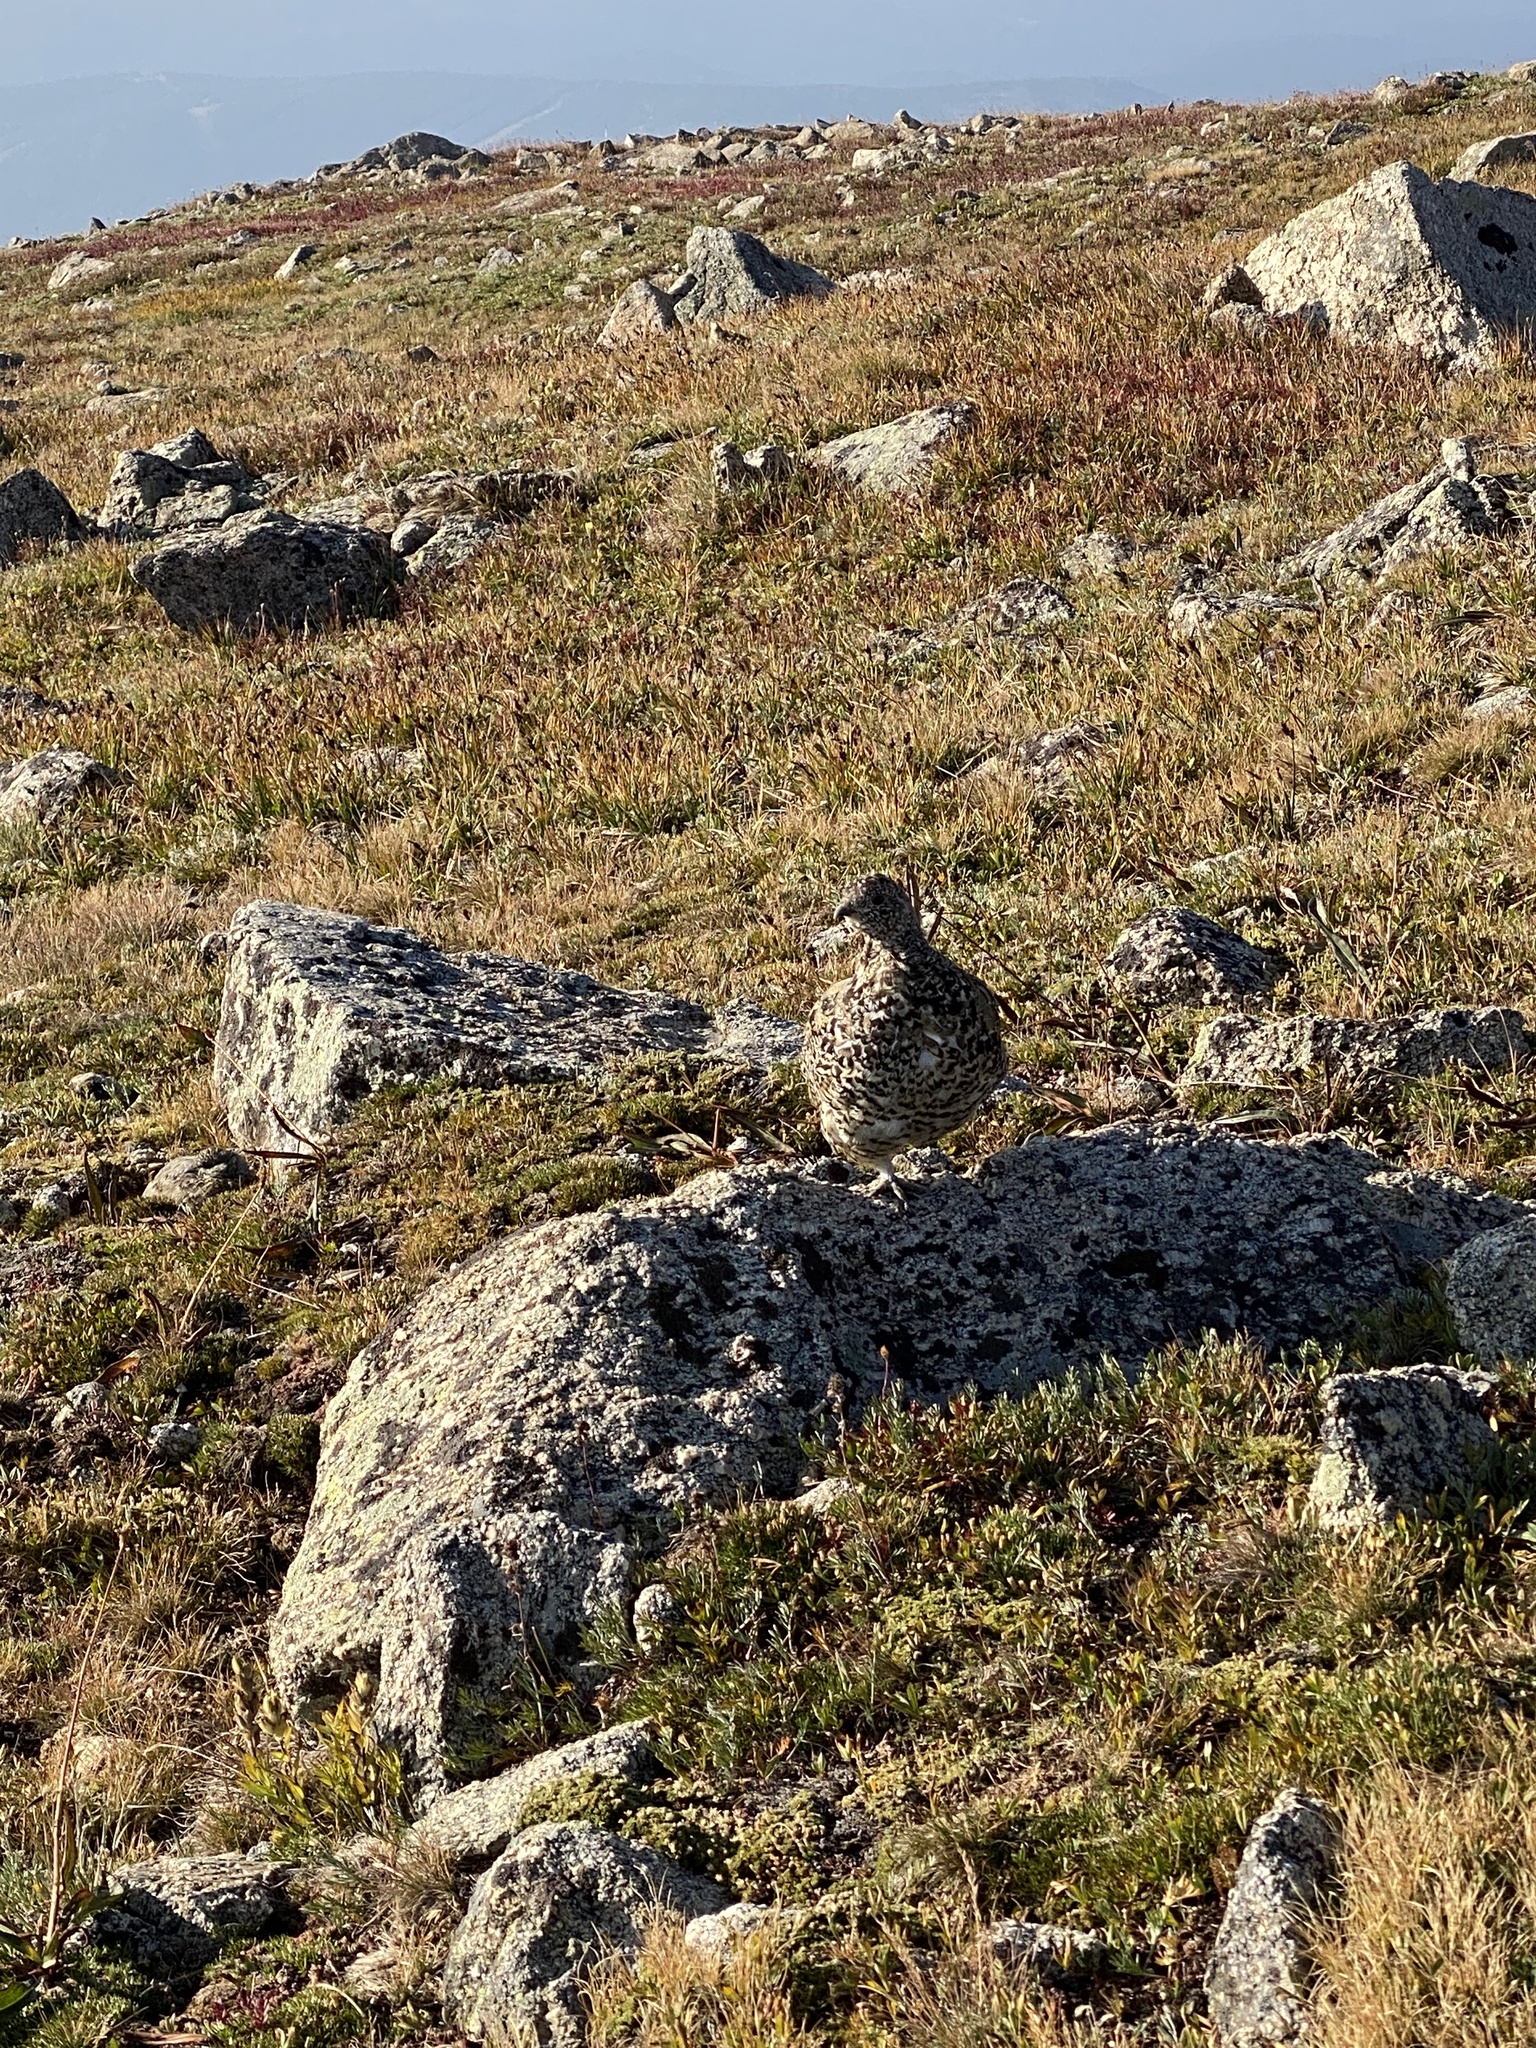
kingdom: Animalia
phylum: Chordata
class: Aves
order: Galliformes
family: Phasianidae
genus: Lagopus
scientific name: Lagopus leucura
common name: White-tailed ptarmigan
